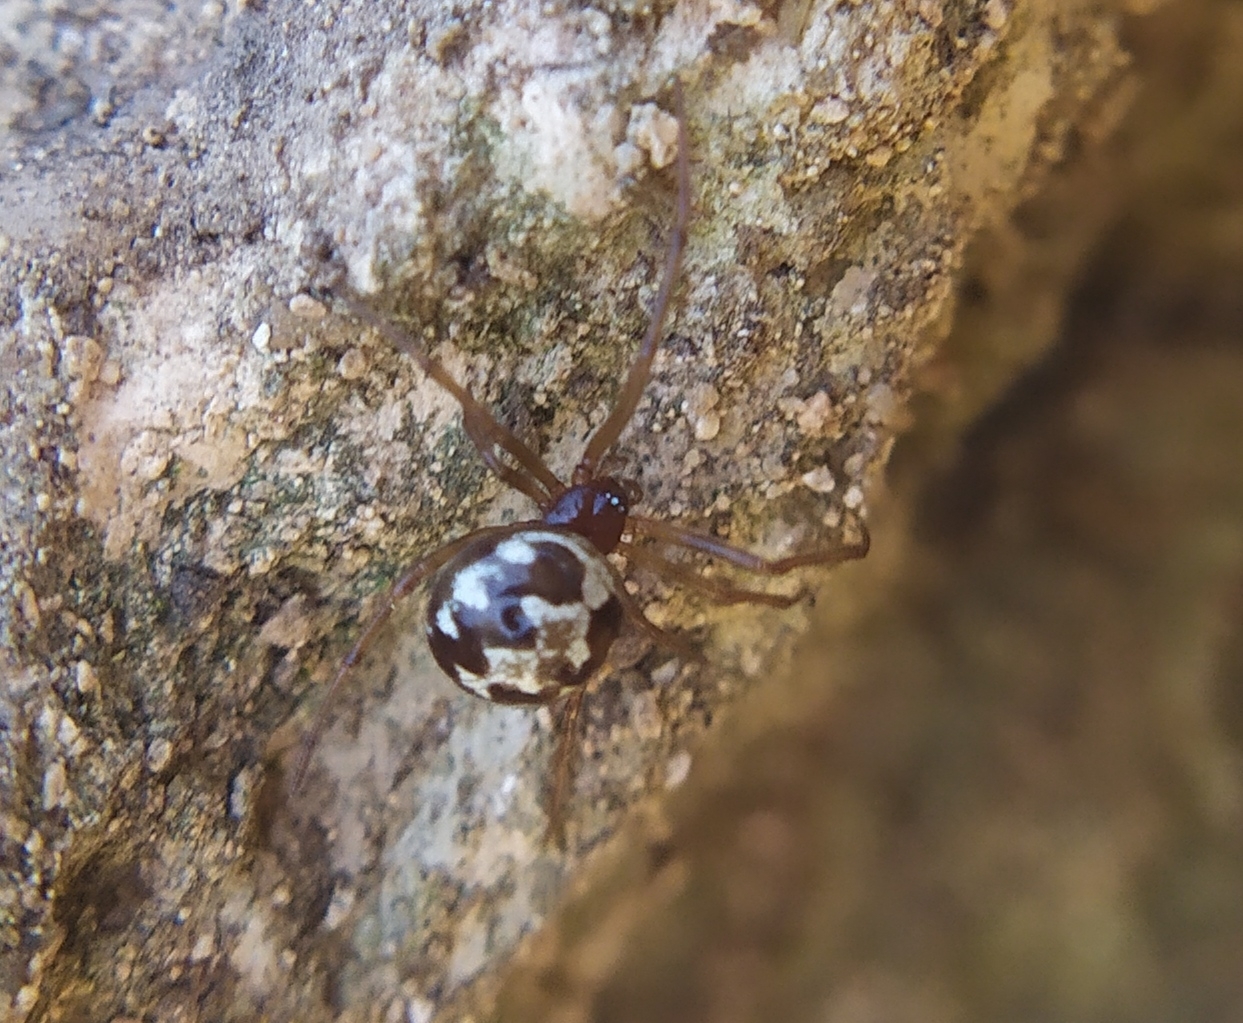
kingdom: Animalia
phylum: Arthropoda
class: Arachnida
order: Araneae
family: Theridiidae
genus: Steatoda
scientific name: Steatoda triangulosa
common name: Triangulate bud spider
